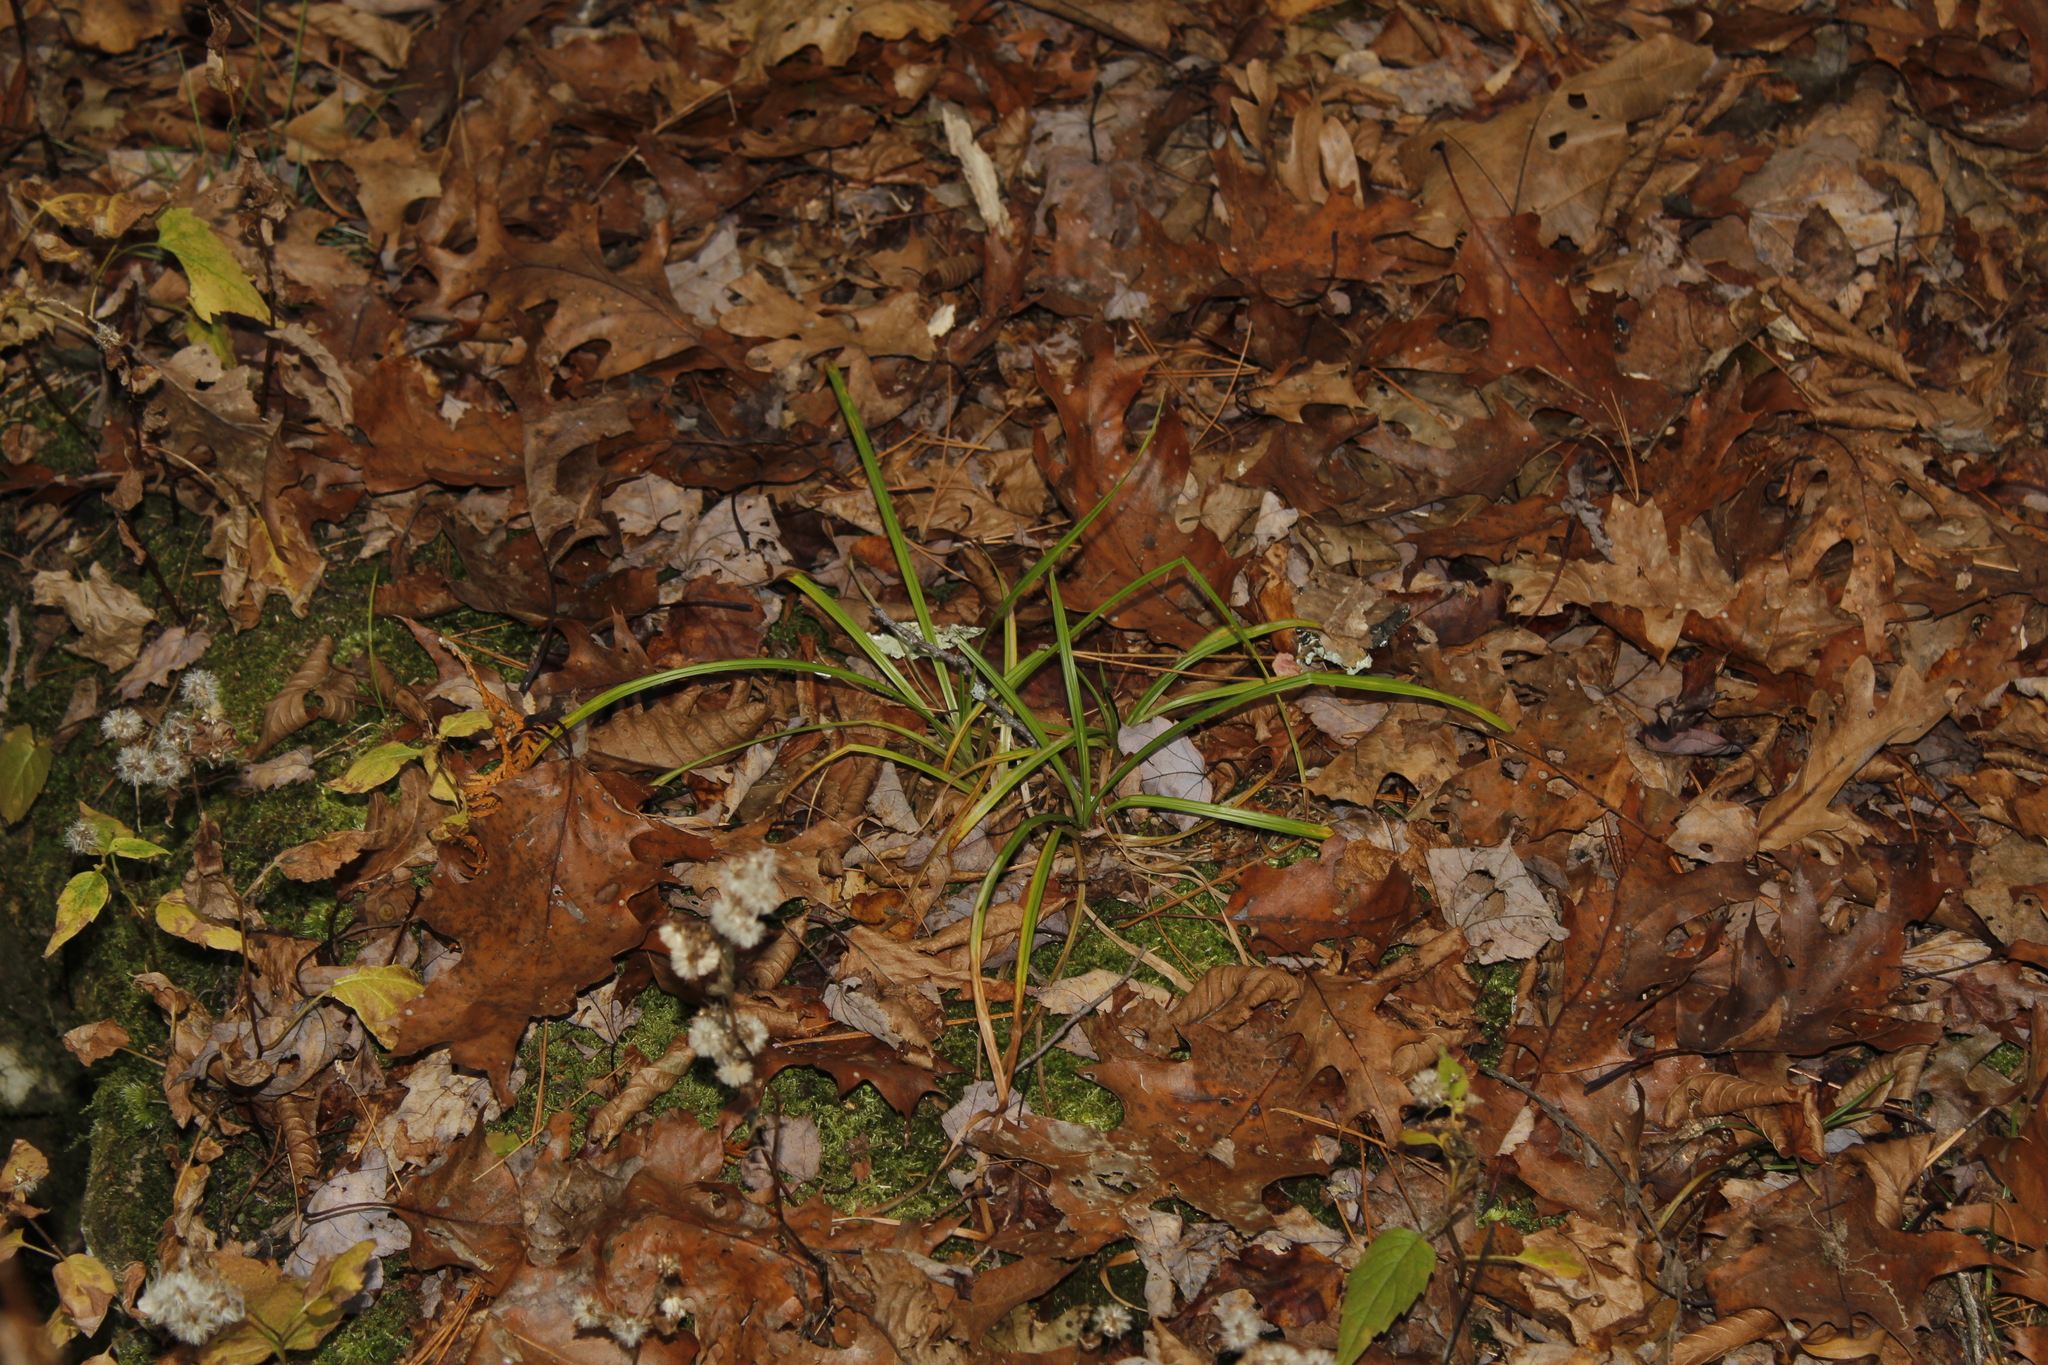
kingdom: Plantae
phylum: Tracheophyta
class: Liliopsida
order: Poales
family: Cyperaceae
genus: Carex
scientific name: Carex
